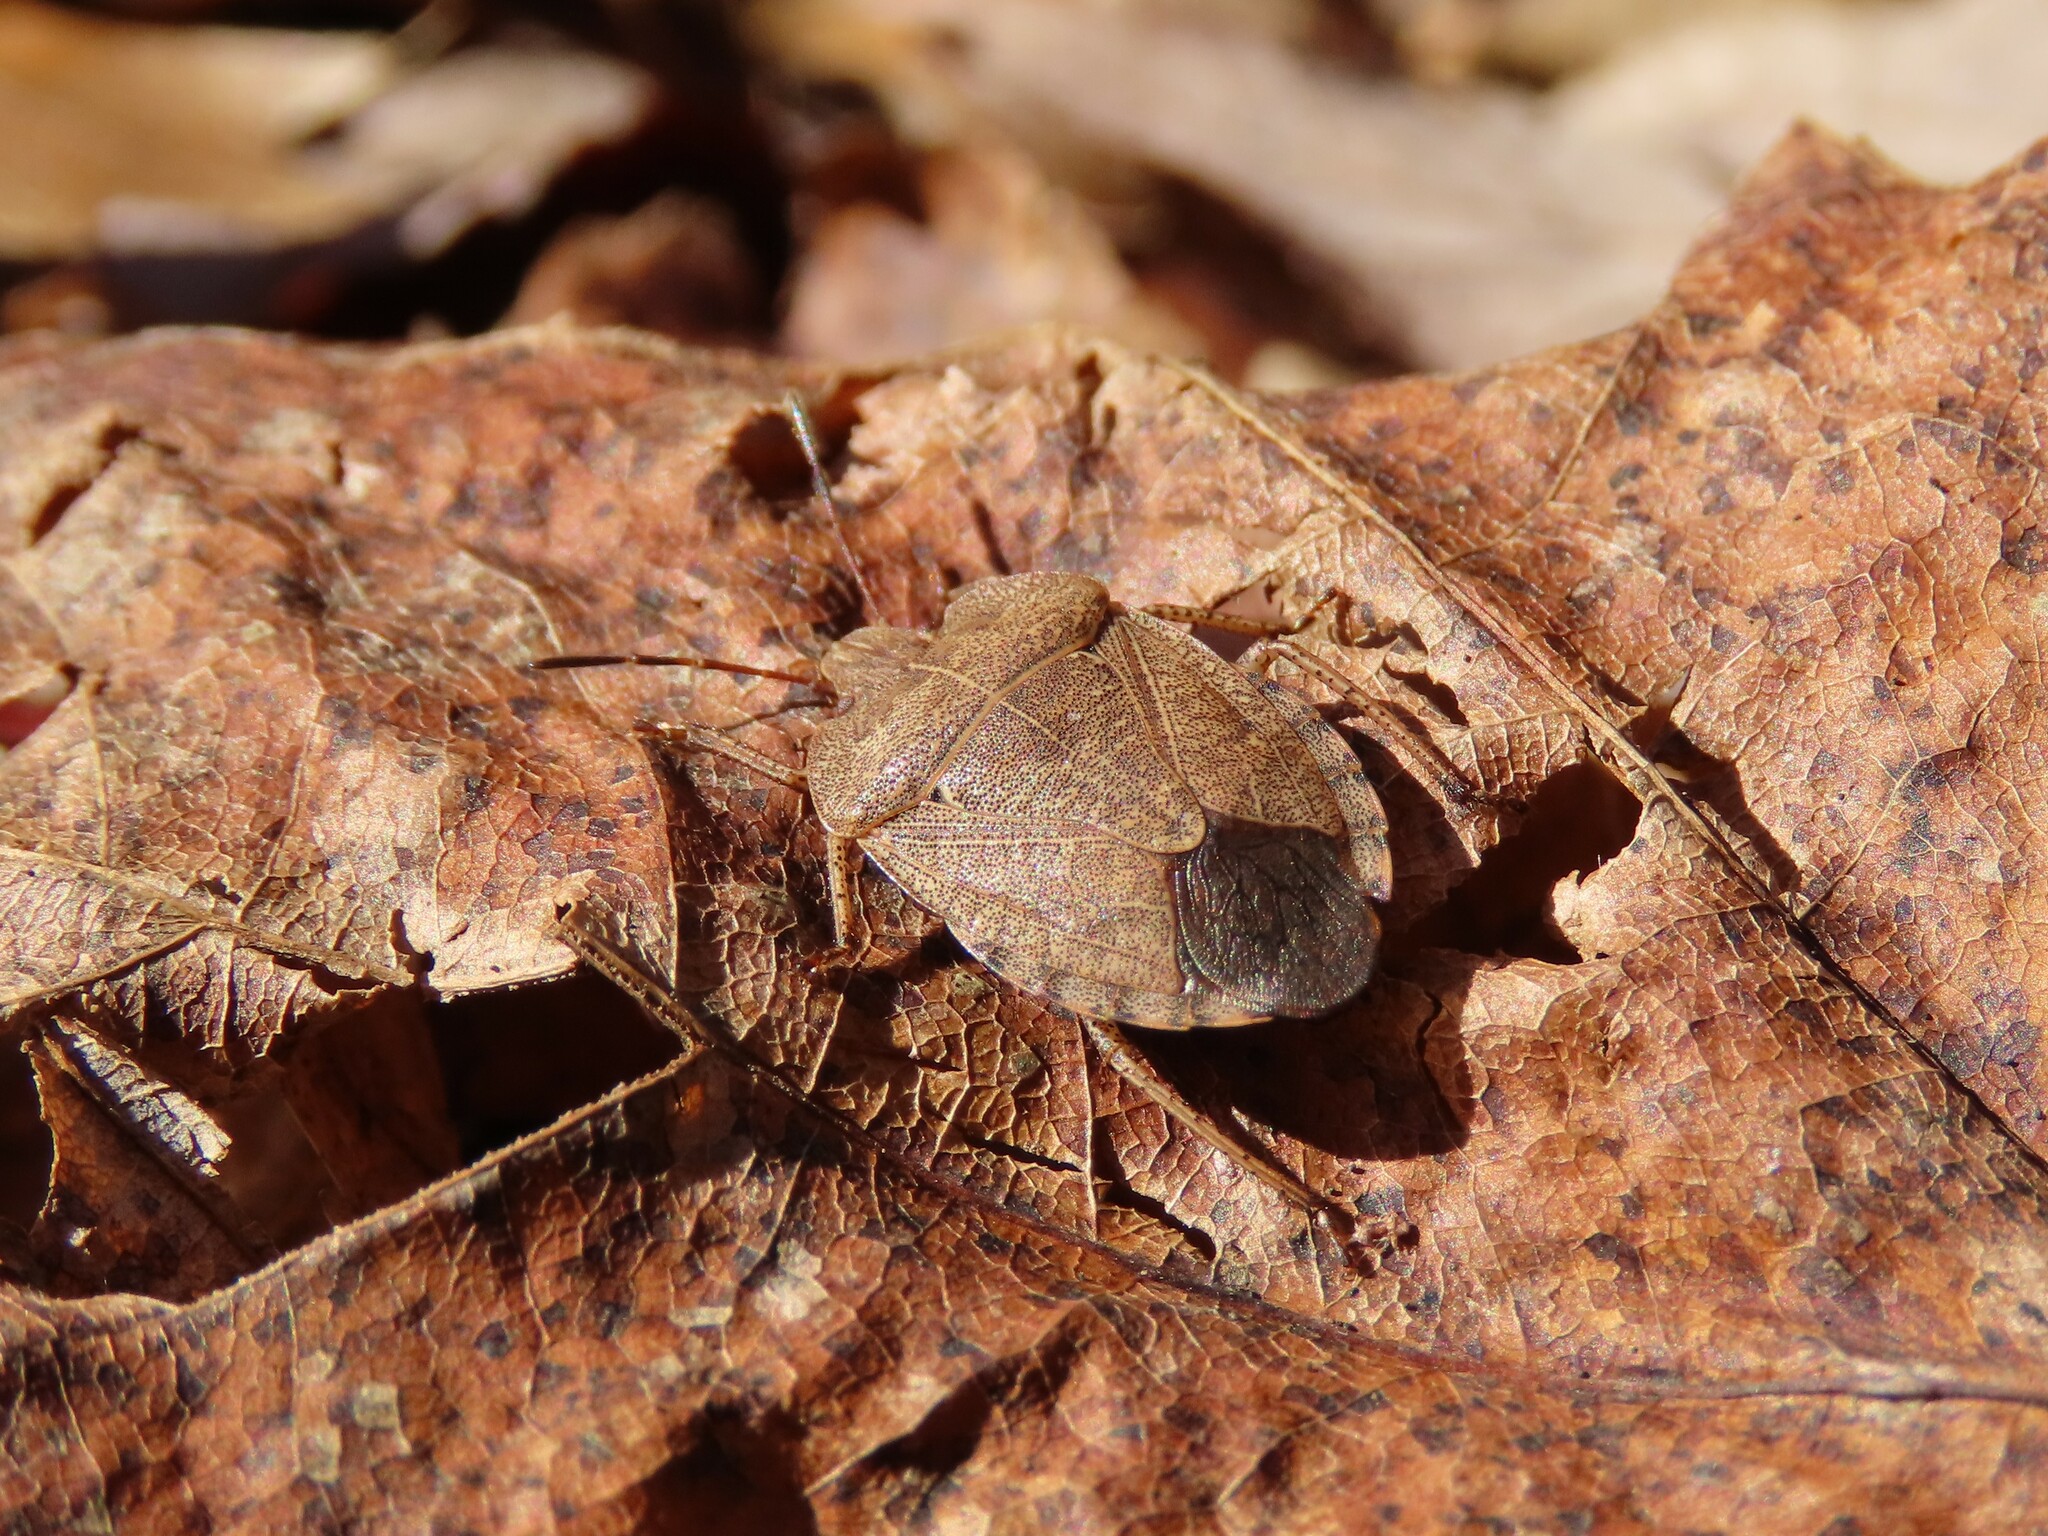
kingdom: Animalia
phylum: Arthropoda
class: Insecta
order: Hemiptera
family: Pentatomidae
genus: Menecles
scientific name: Menecles insertus
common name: Elf shoe stink bug
